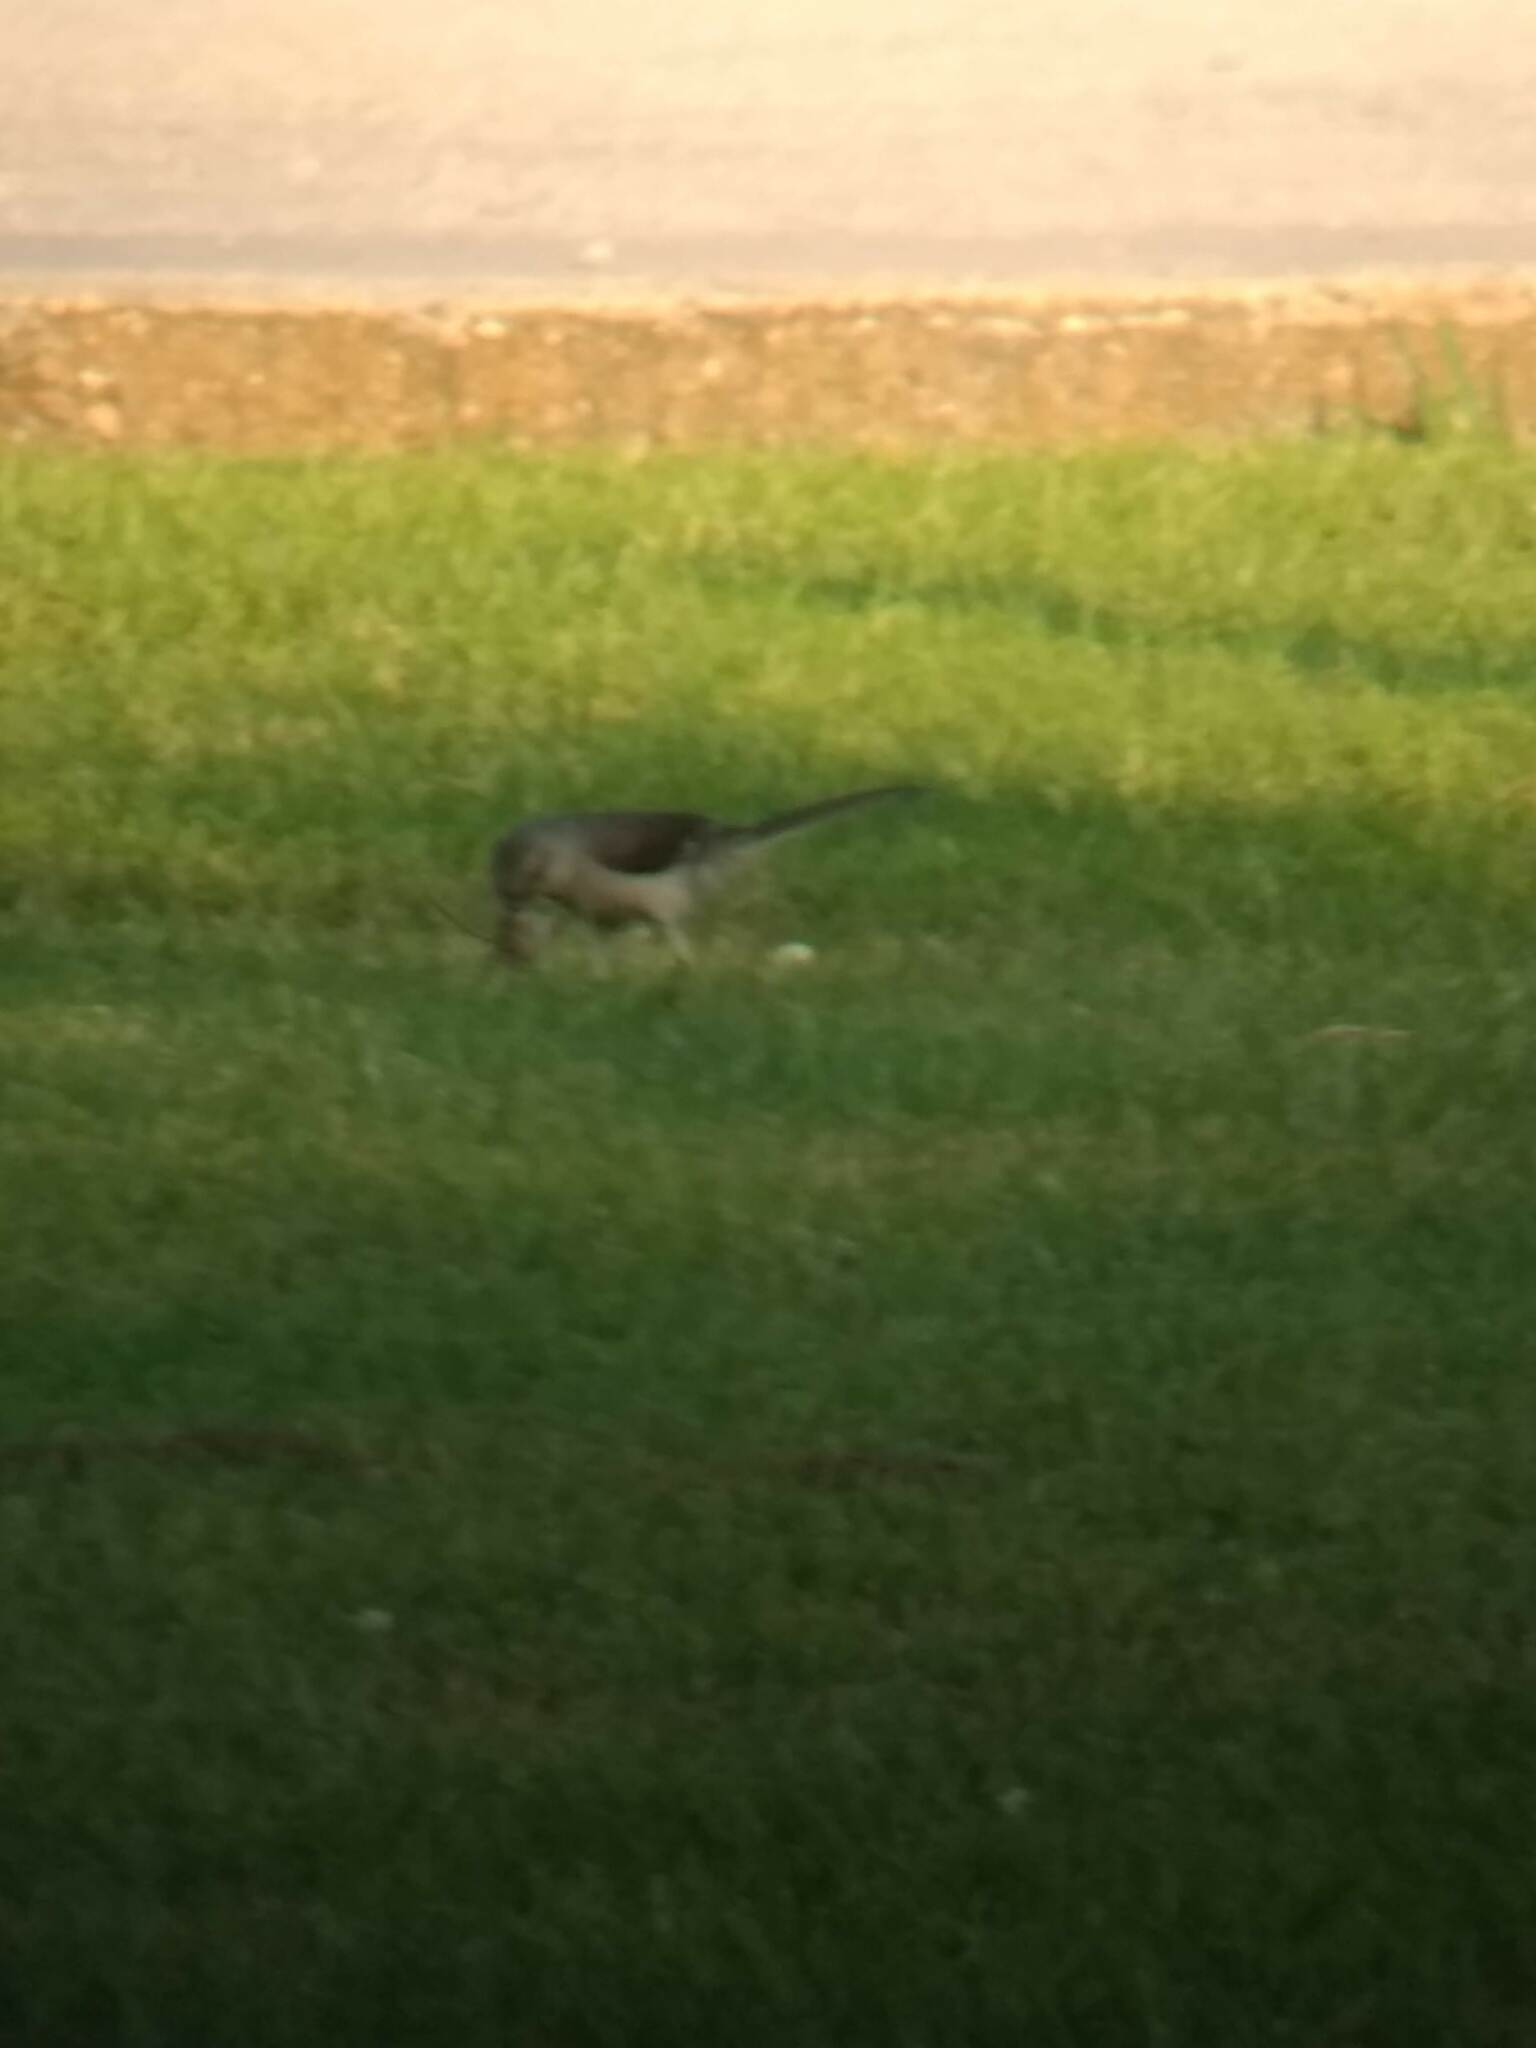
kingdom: Animalia
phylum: Chordata
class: Aves
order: Passeriformes
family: Mimidae
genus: Mimus
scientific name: Mimus polyglottos
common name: Northern mockingbird
